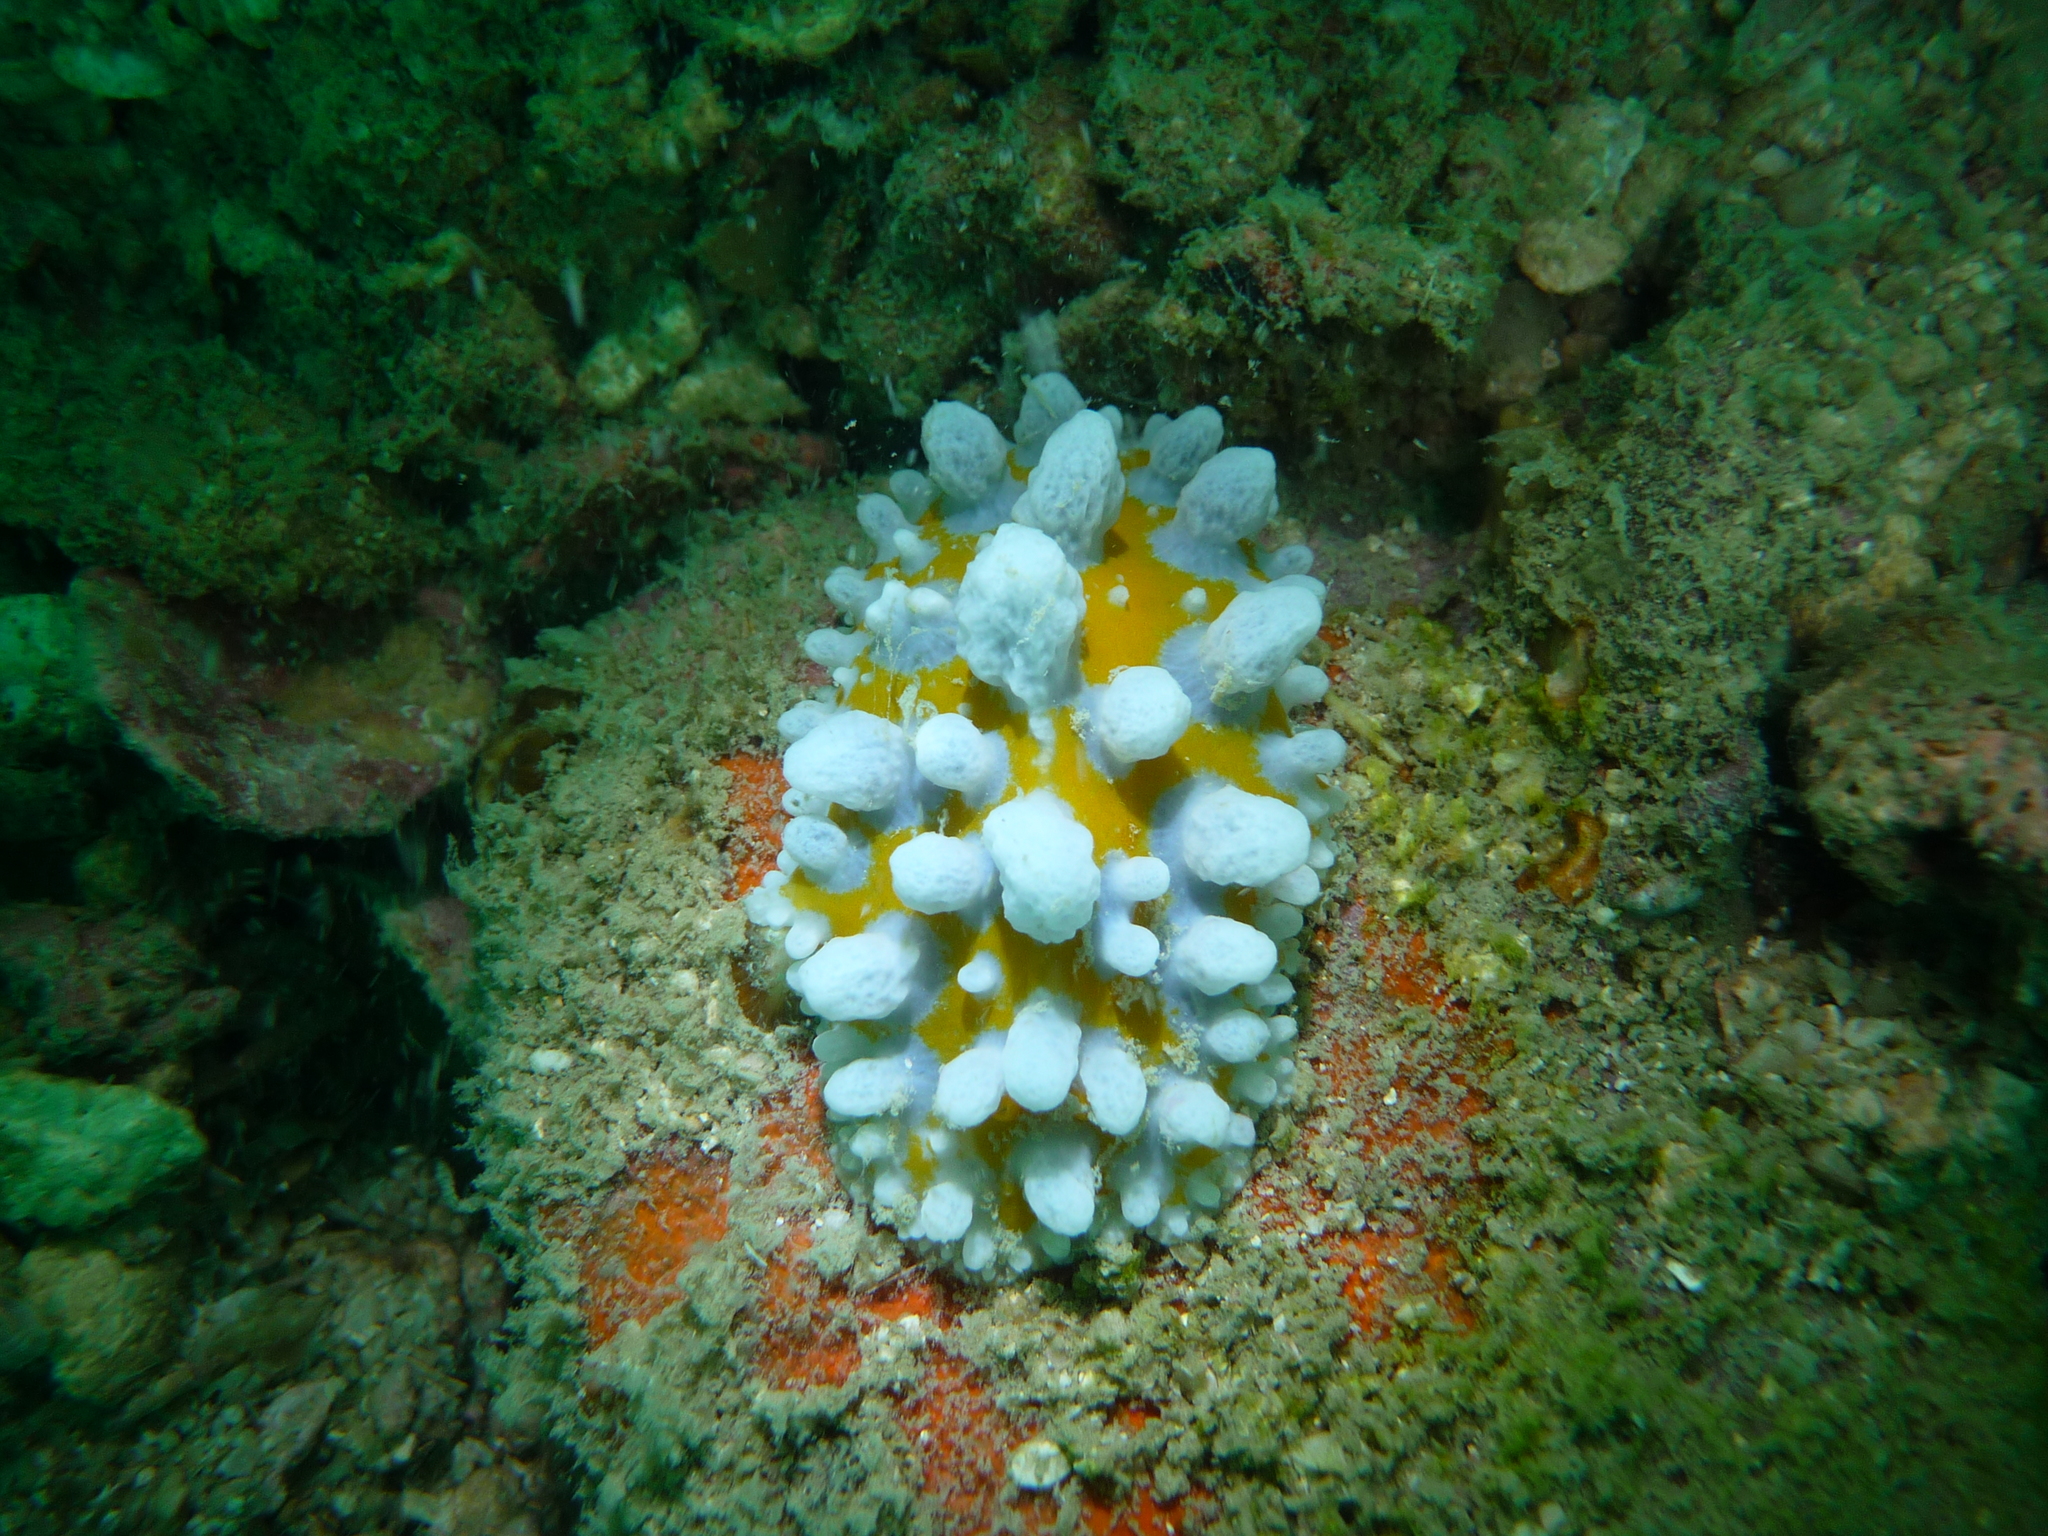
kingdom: Animalia
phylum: Mollusca
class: Gastropoda
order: Nudibranchia
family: Phyllidiidae
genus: Phyllidia
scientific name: Phyllidia ocellata
